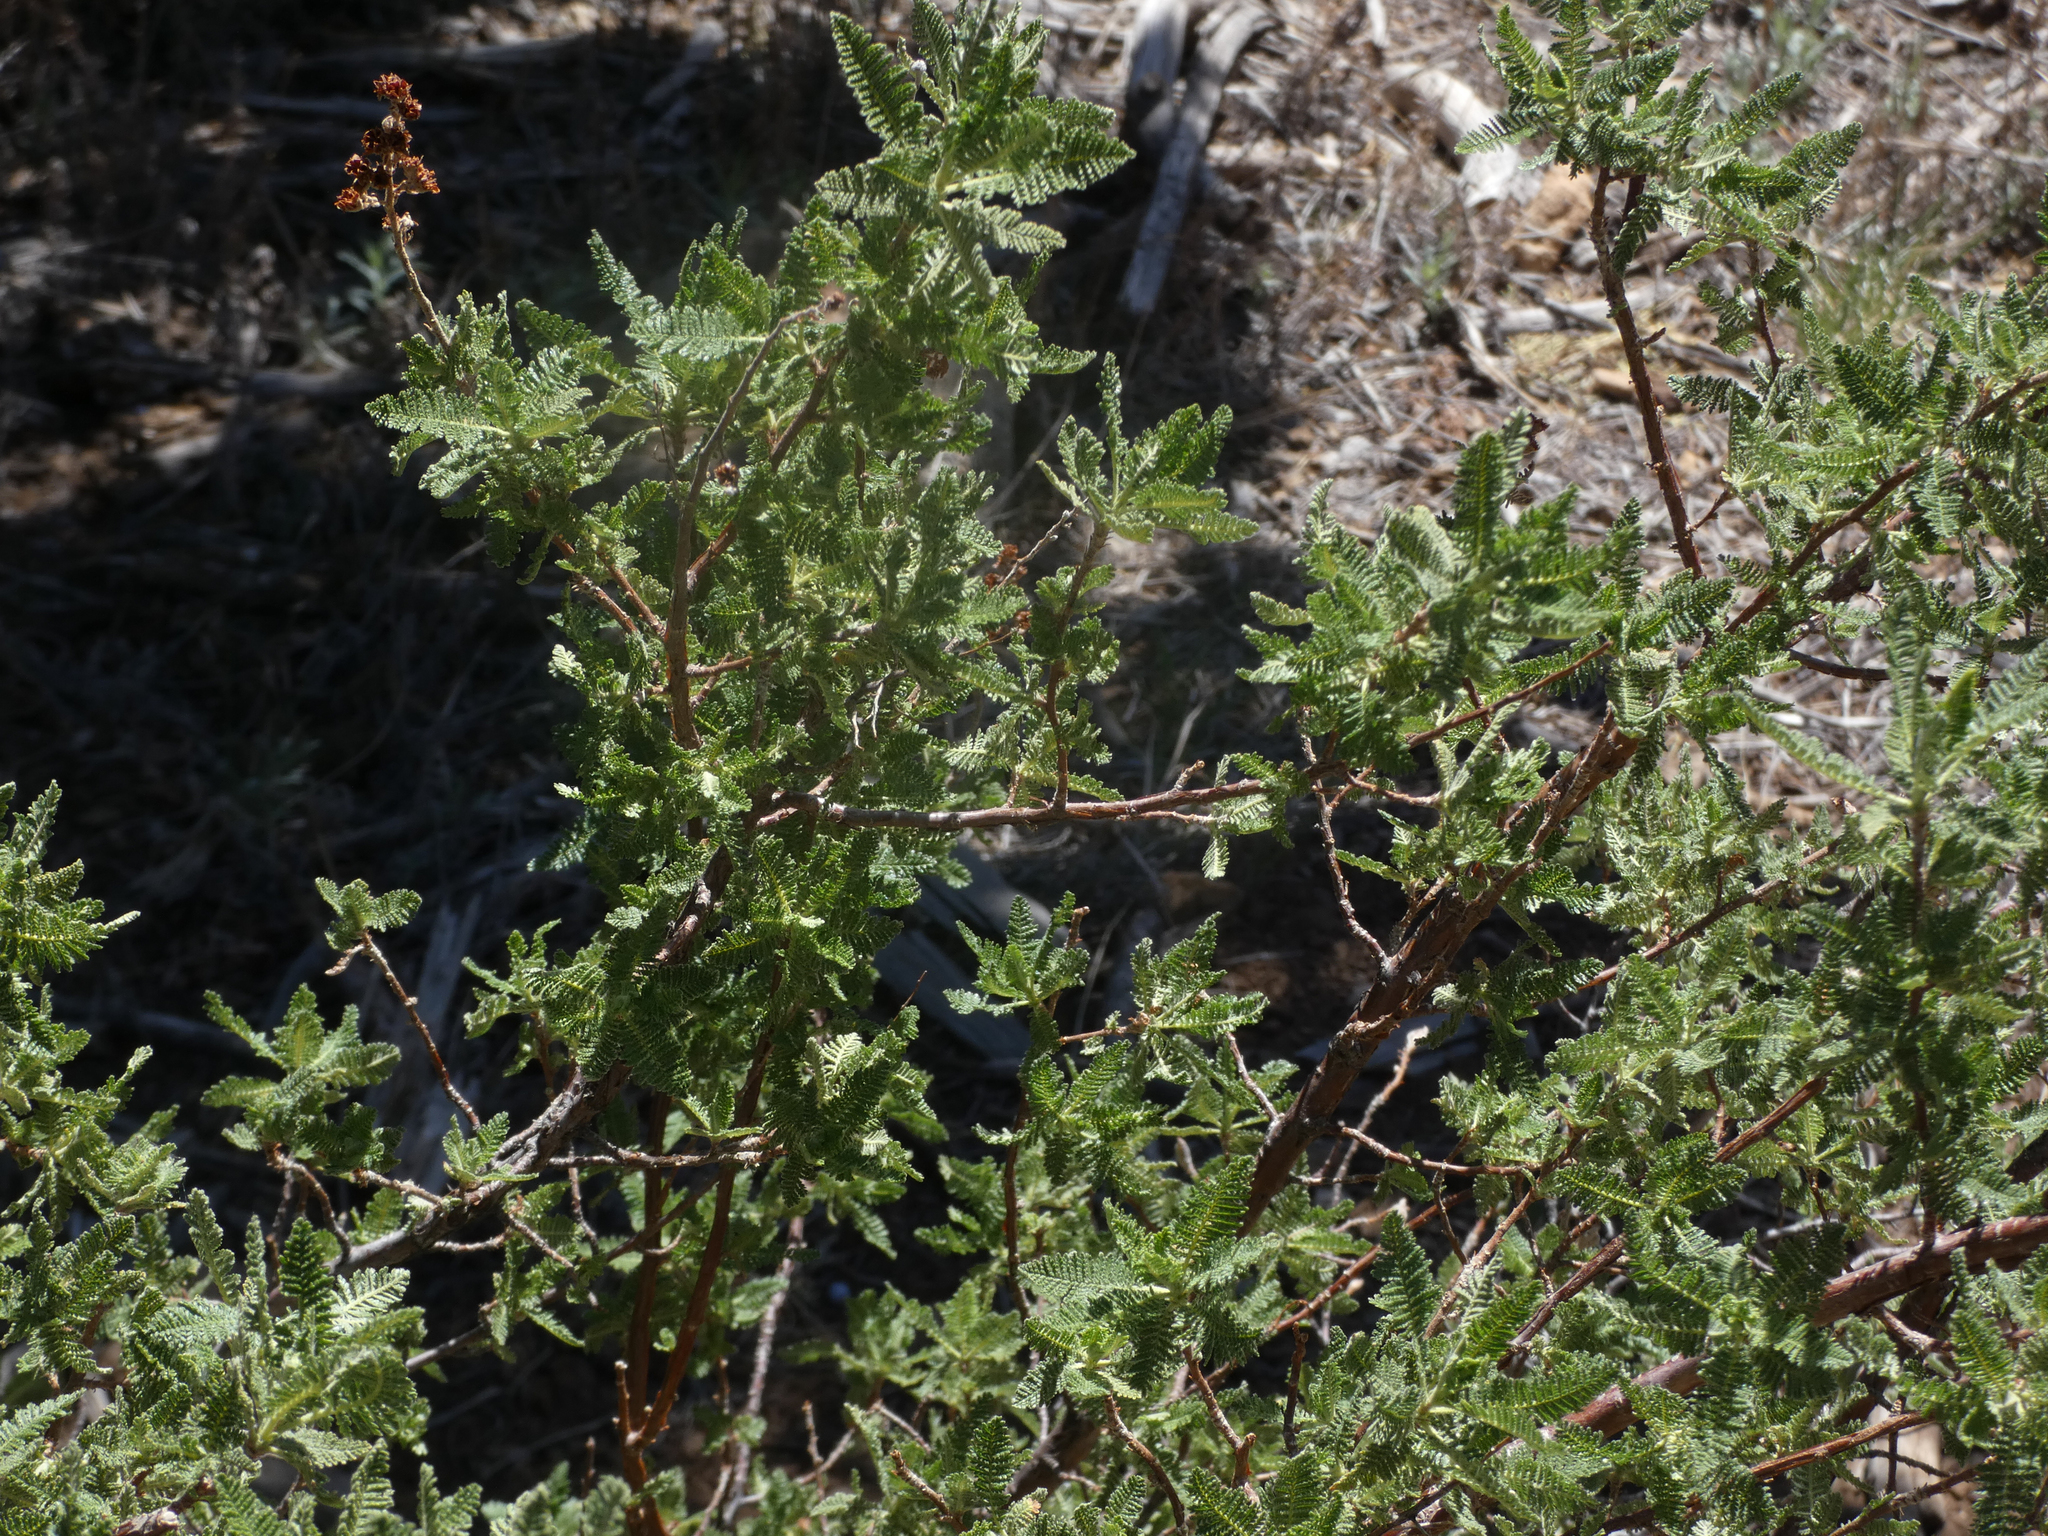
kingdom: Plantae
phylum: Tracheophyta
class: Magnoliopsida
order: Rosales
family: Rosaceae
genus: Chamaebatiaria
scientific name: Chamaebatiaria millefolium
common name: Fernbush
